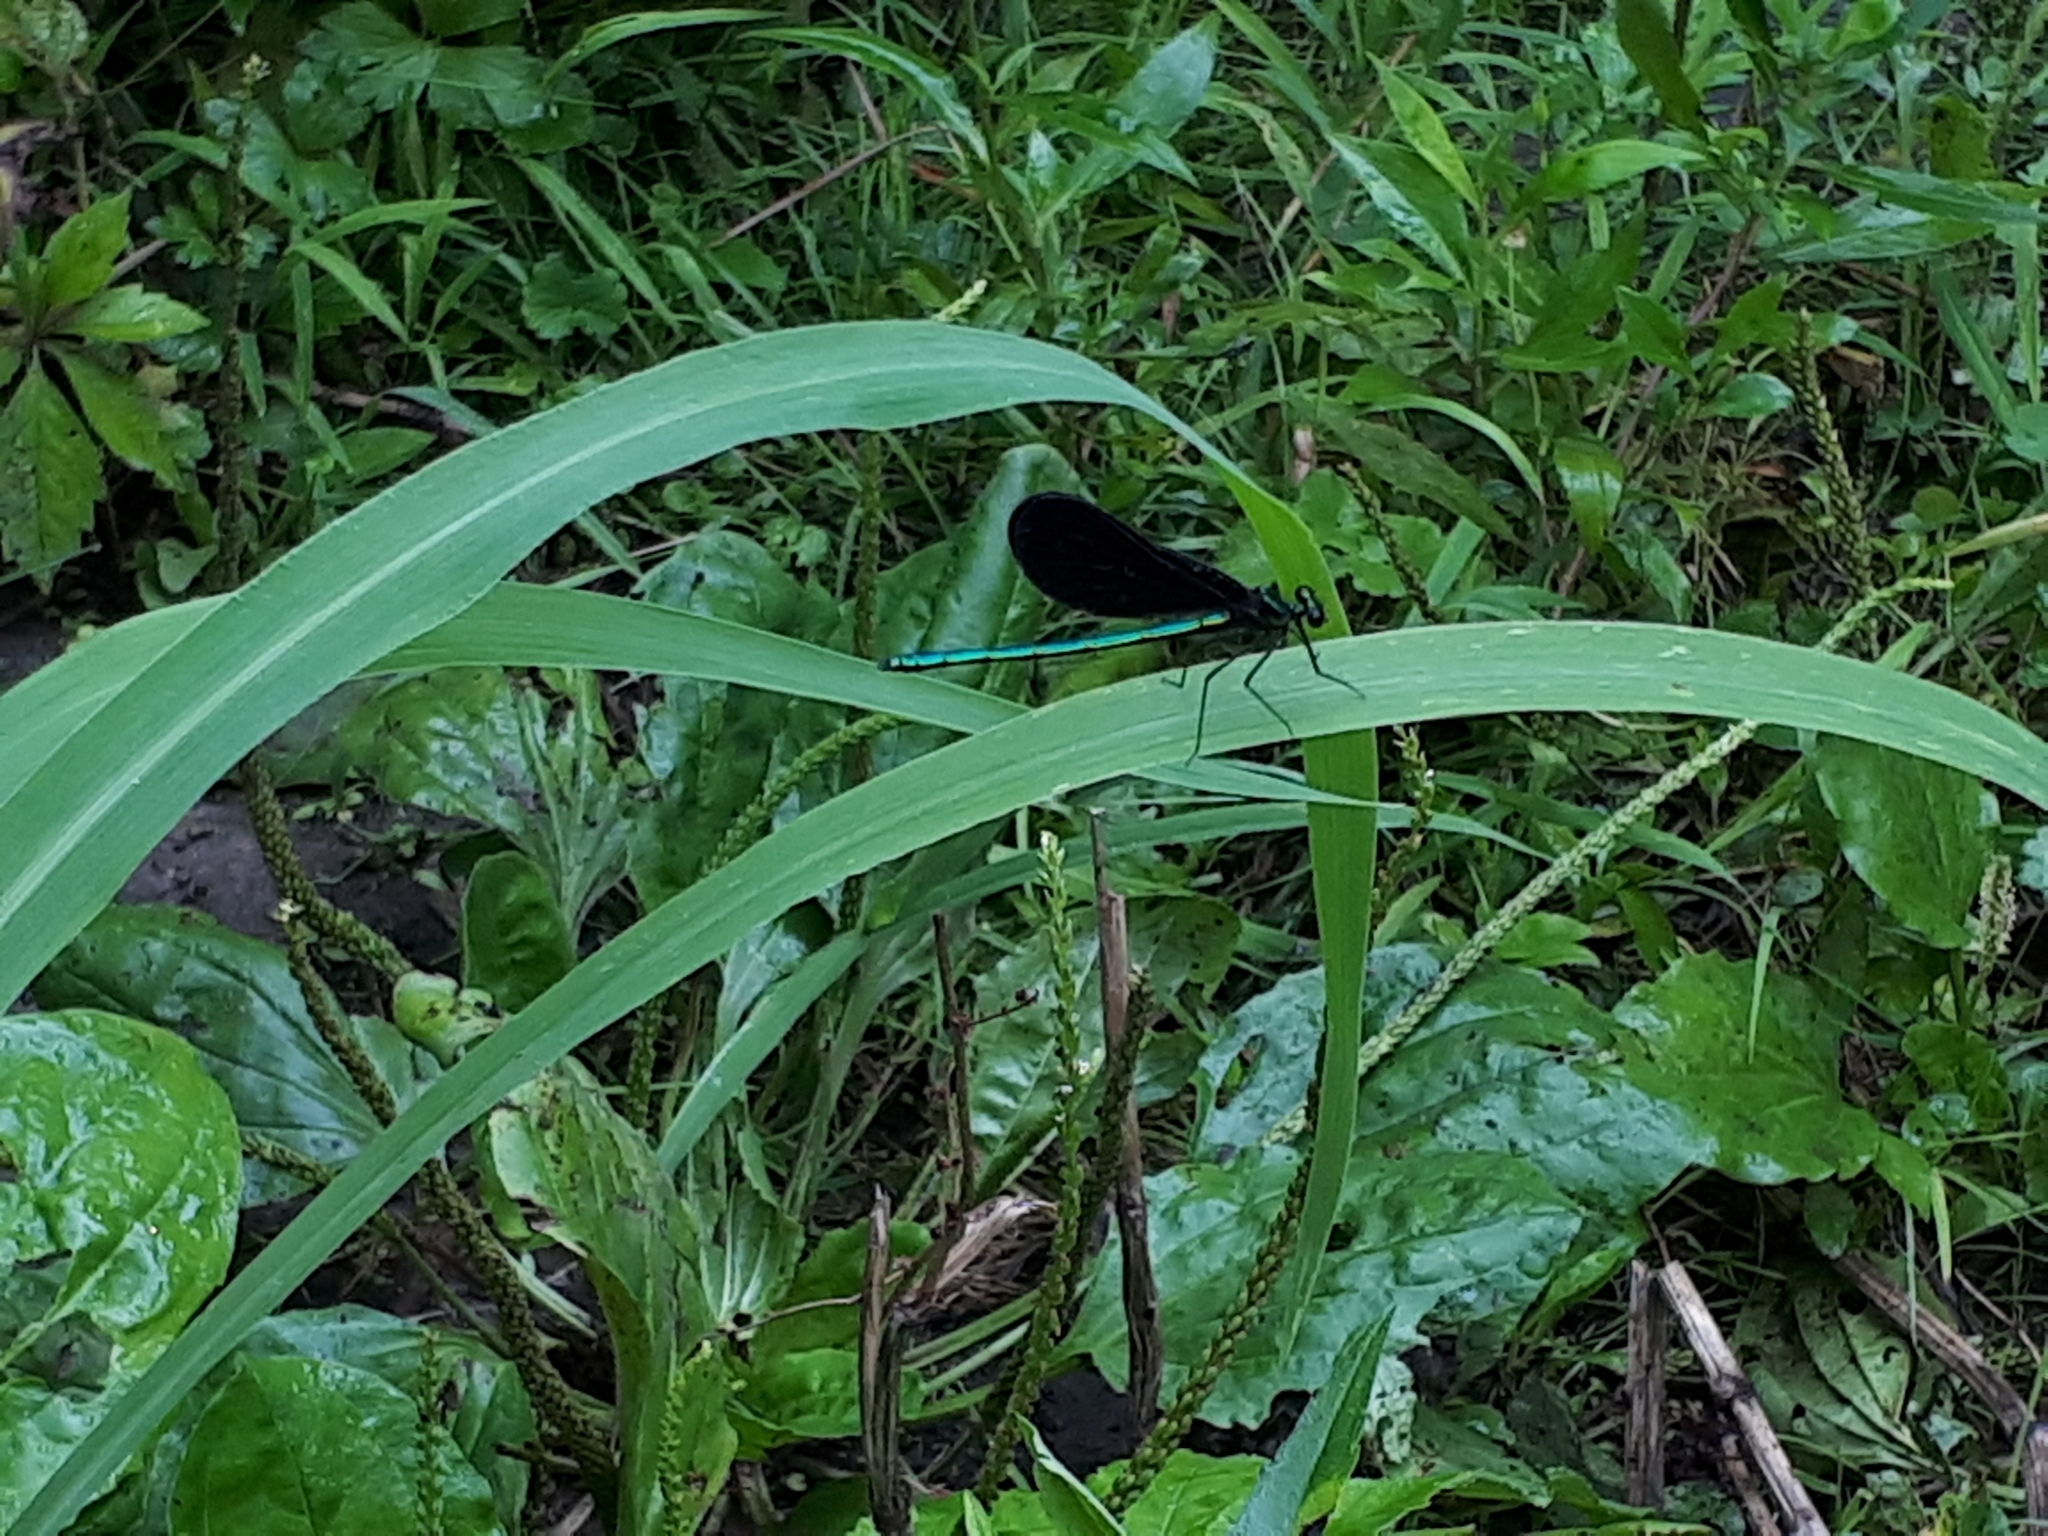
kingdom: Animalia
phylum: Arthropoda
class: Insecta
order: Odonata
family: Calopterygidae
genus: Calopteryx
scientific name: Calopteryx maculata
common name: Ebony jewelwing
